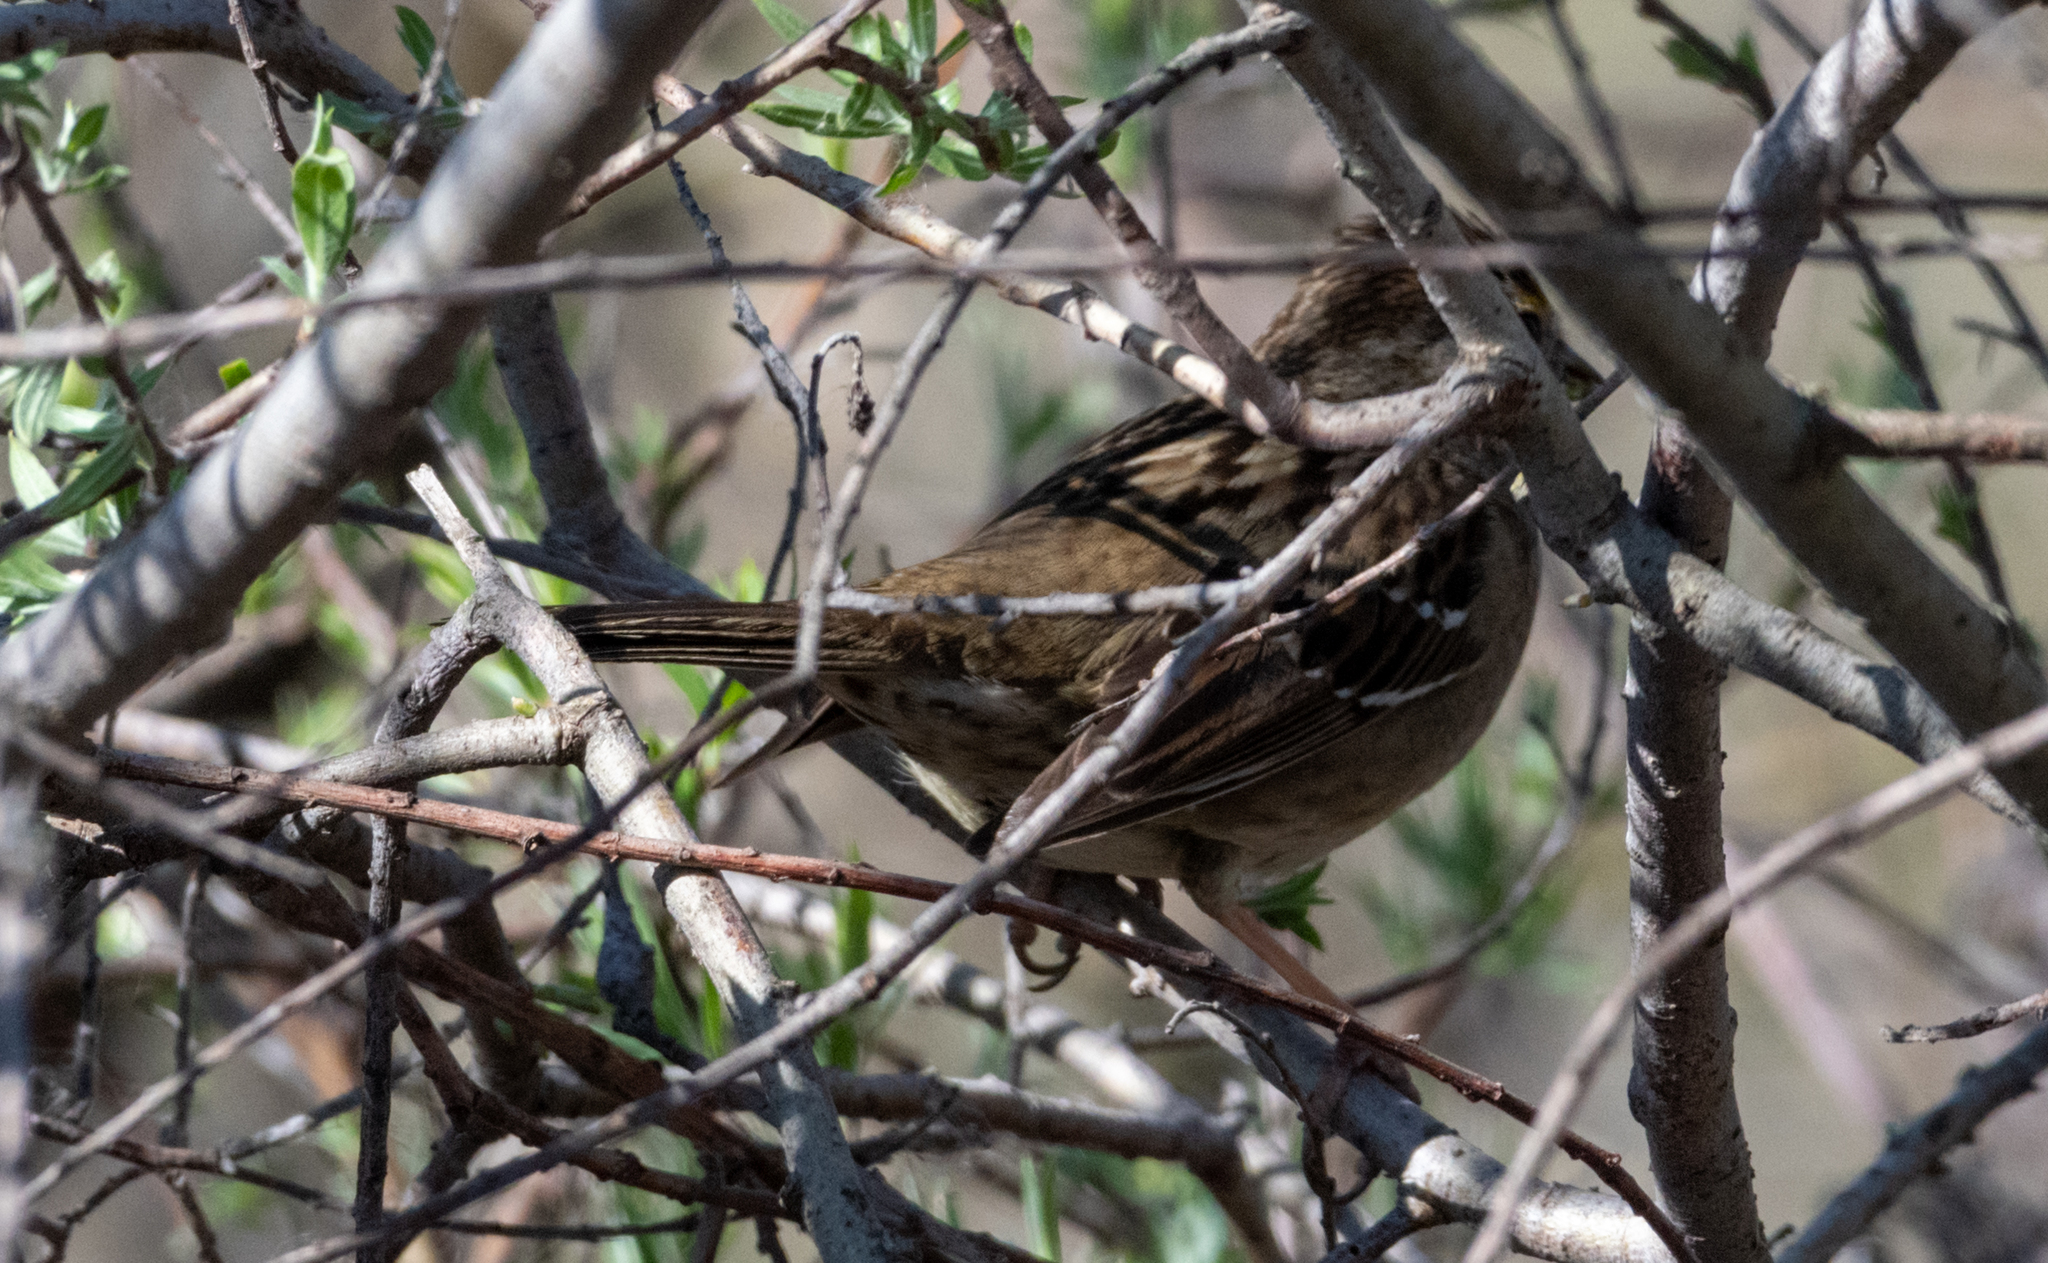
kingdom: Animalia
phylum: Chordata
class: Aves
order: Passeriformes
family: Passerellidae
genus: Zonotrichia
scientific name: Zonotrichia atricapilla
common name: Golden-crowned sparrow
